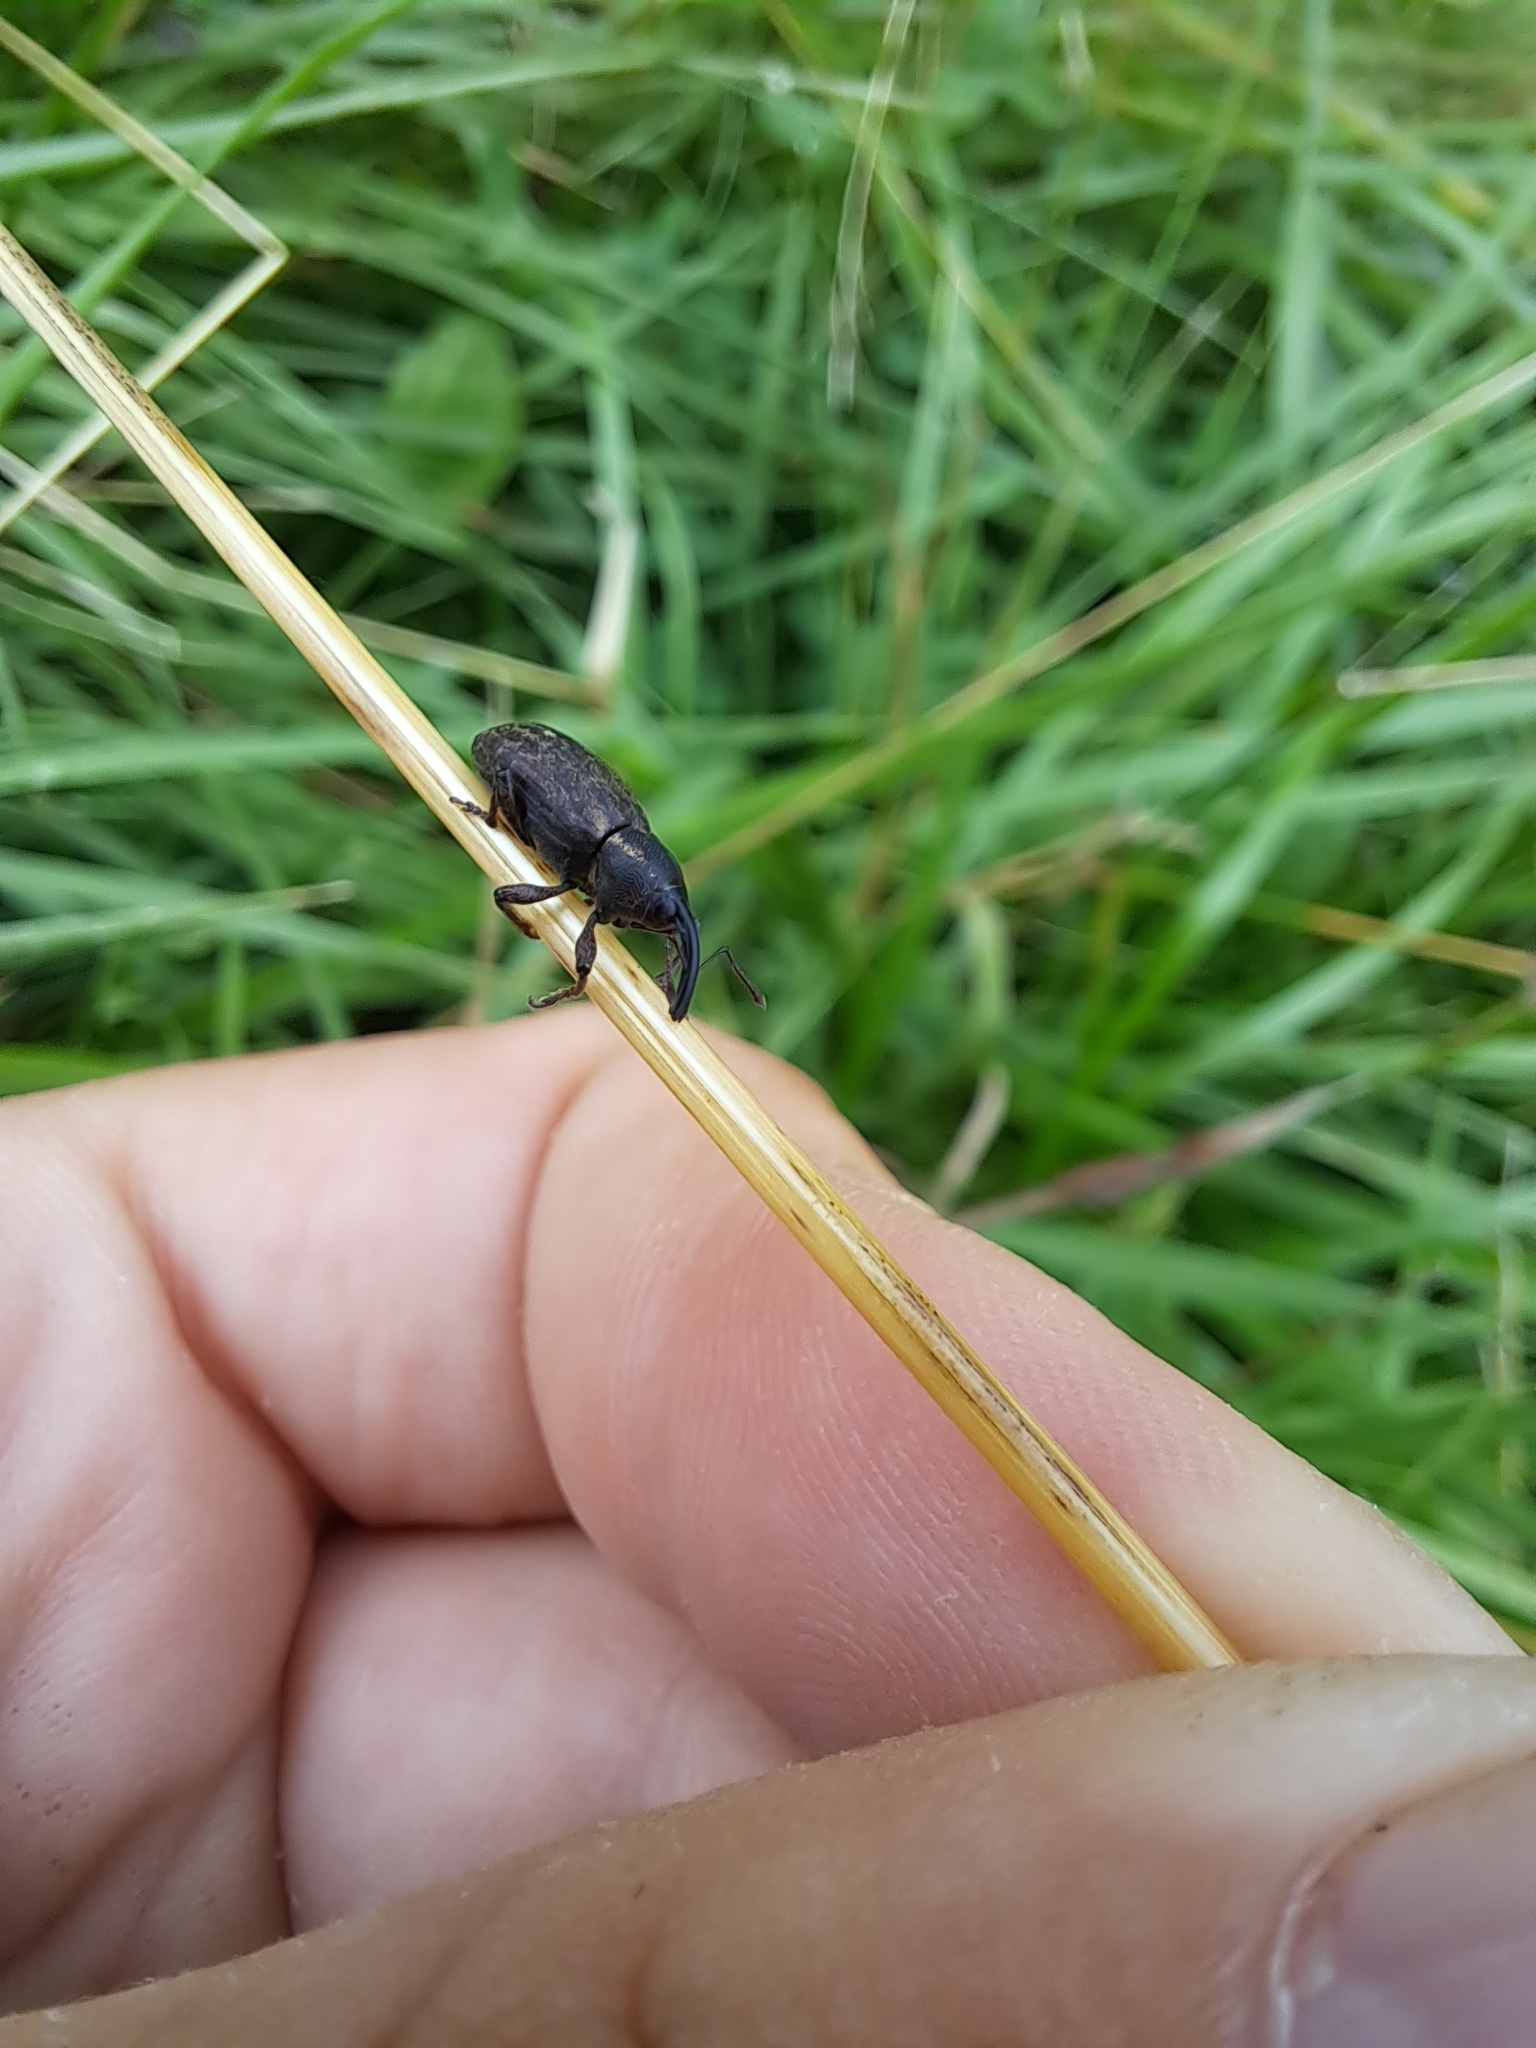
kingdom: Animalia
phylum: Arthropoda
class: Insecta
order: Coleoptera
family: Brachyceridae
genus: Tournotaris
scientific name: Tournotaris bimaculata
